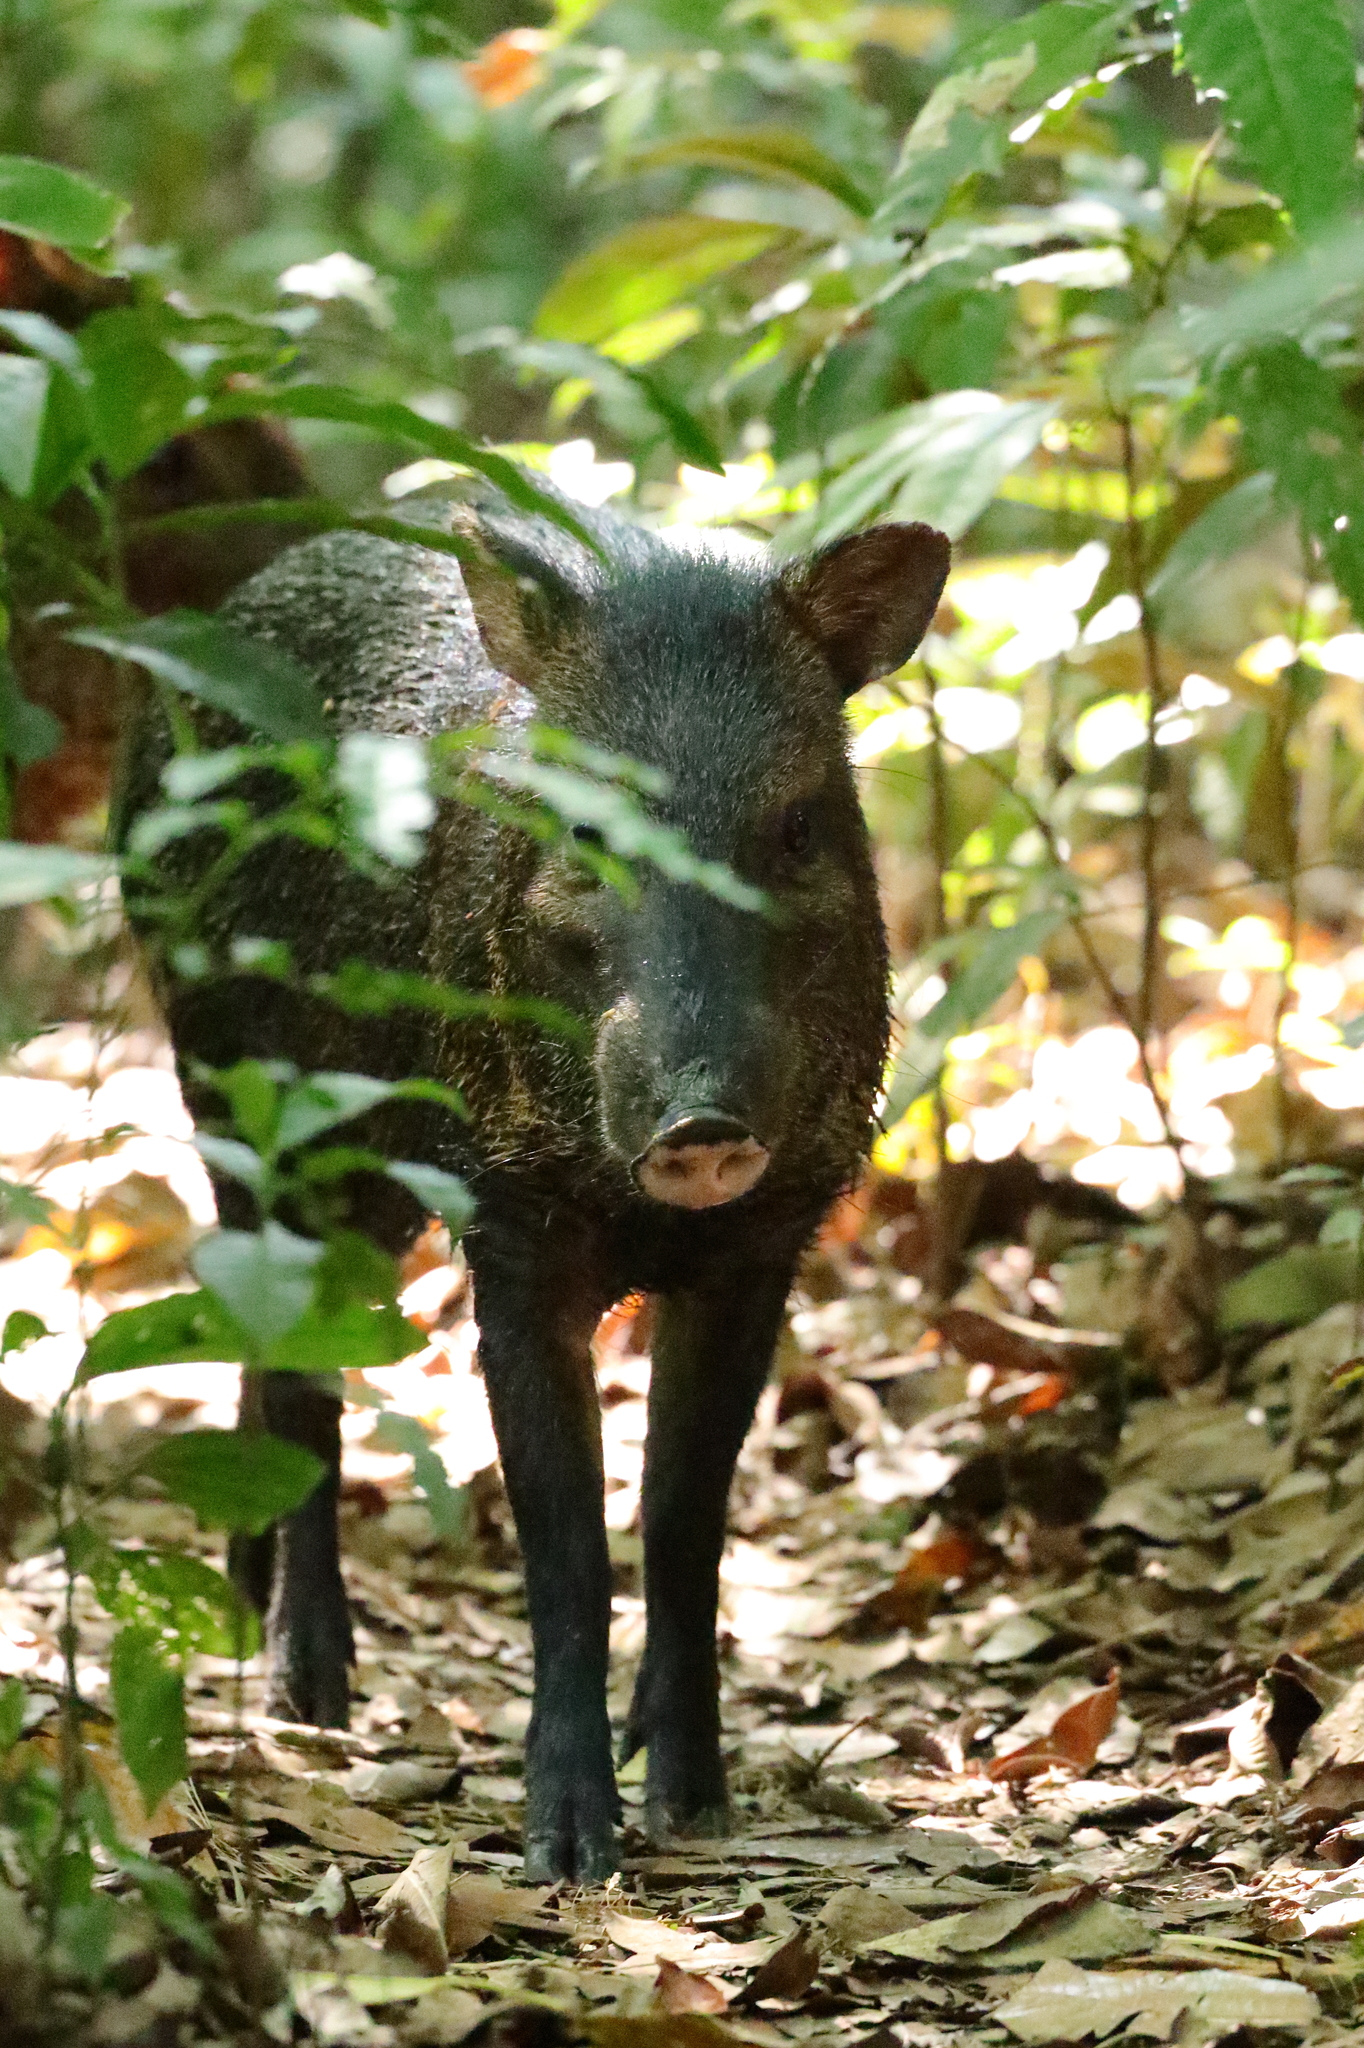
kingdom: Animalia
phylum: Chordata
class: Mammalia
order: Artiodactyla
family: Tayassuidae
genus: Pecari
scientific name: Pecari tajacu
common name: Collared peccary
